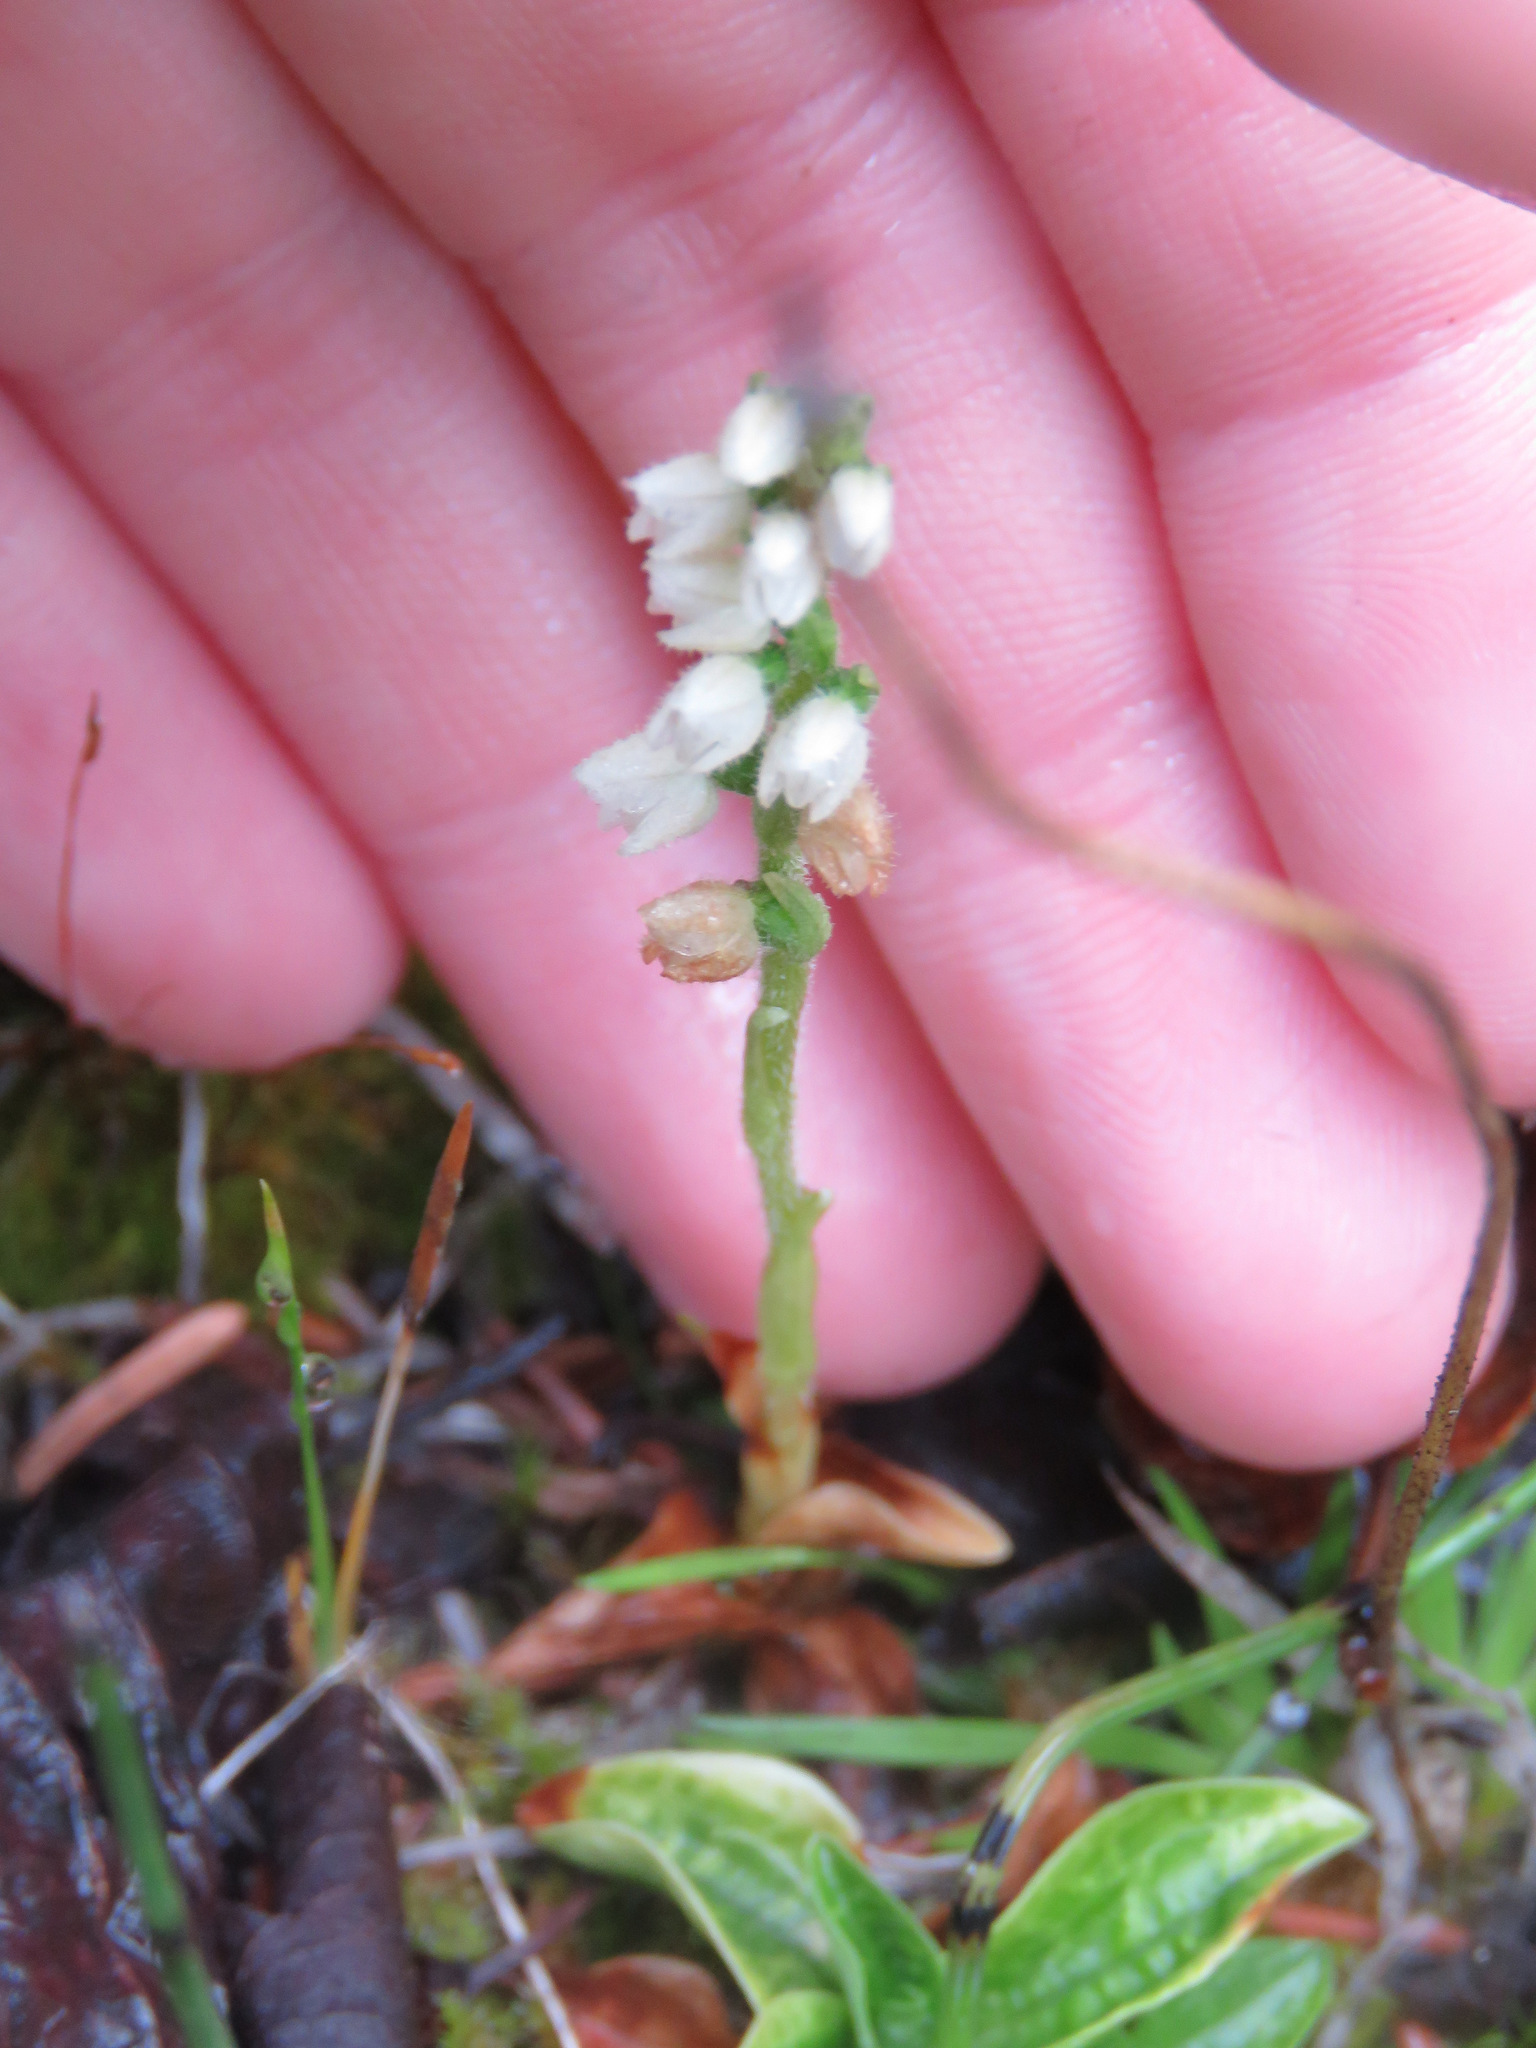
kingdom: Plantae
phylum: Tracheophyta
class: Liliopsida
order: Asparagales
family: Orchidaceae
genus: Goodyera
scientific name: Goodyera repens
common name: Creeping lady's-tresses
